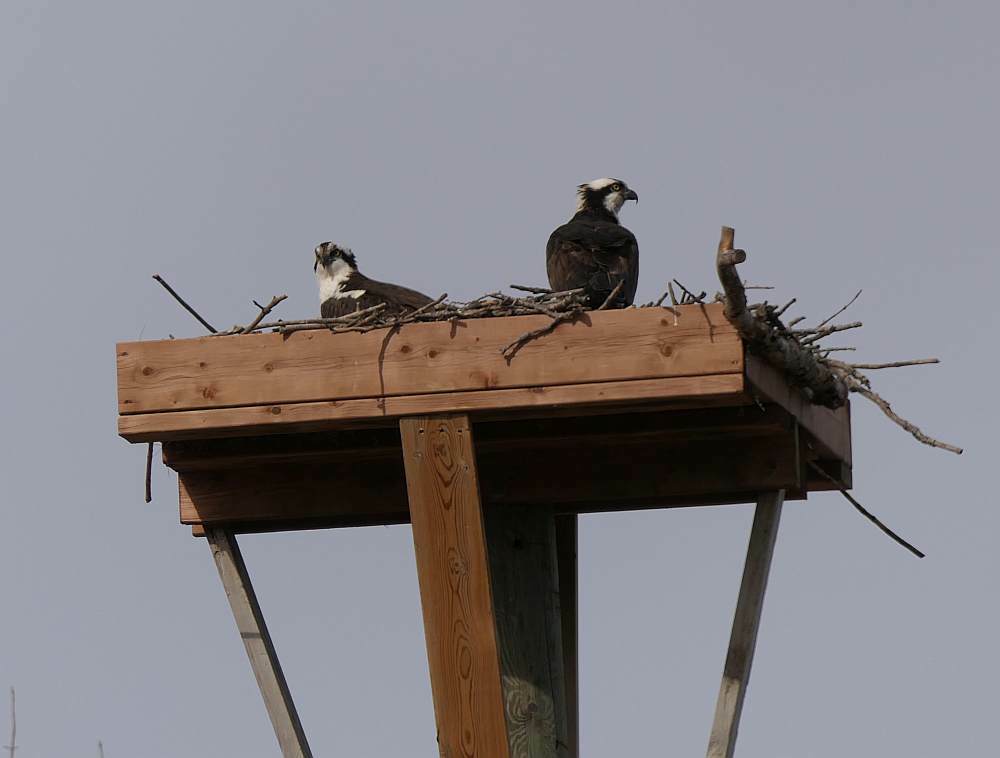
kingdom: Animalia
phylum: Chordata
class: Aves
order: Accipitriformes
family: Pandionidae
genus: Pandion
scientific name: Pandion haliaetus
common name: Osprey
